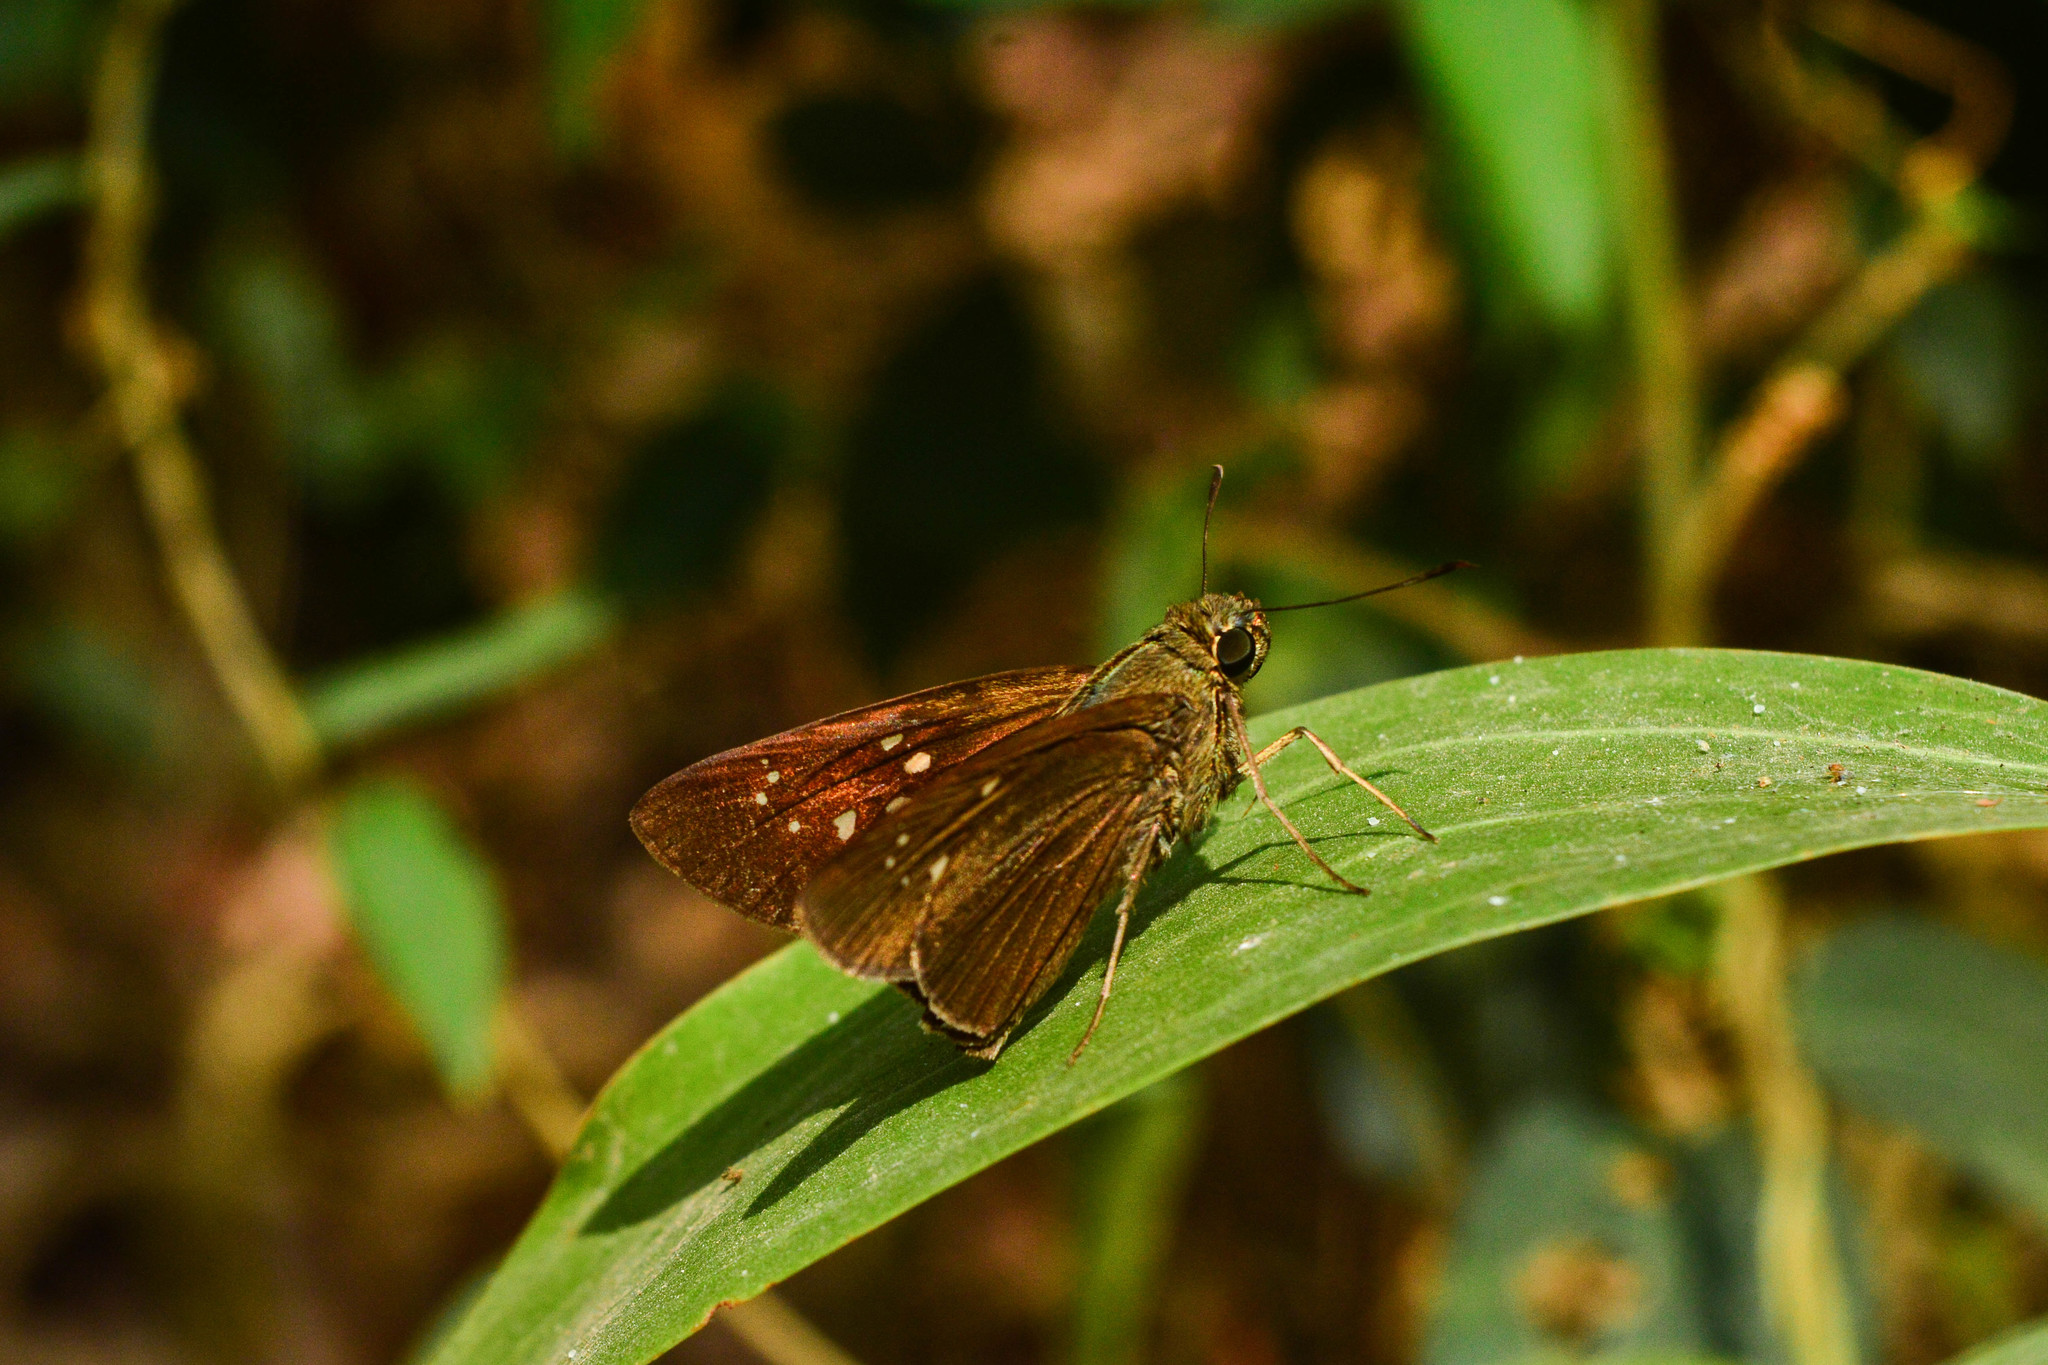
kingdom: Animalia
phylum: Arthropoda
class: Insecta
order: Lepidoptera
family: Hesperiidae
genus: Baoris
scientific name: Baoris farri
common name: Paintbrush swift
